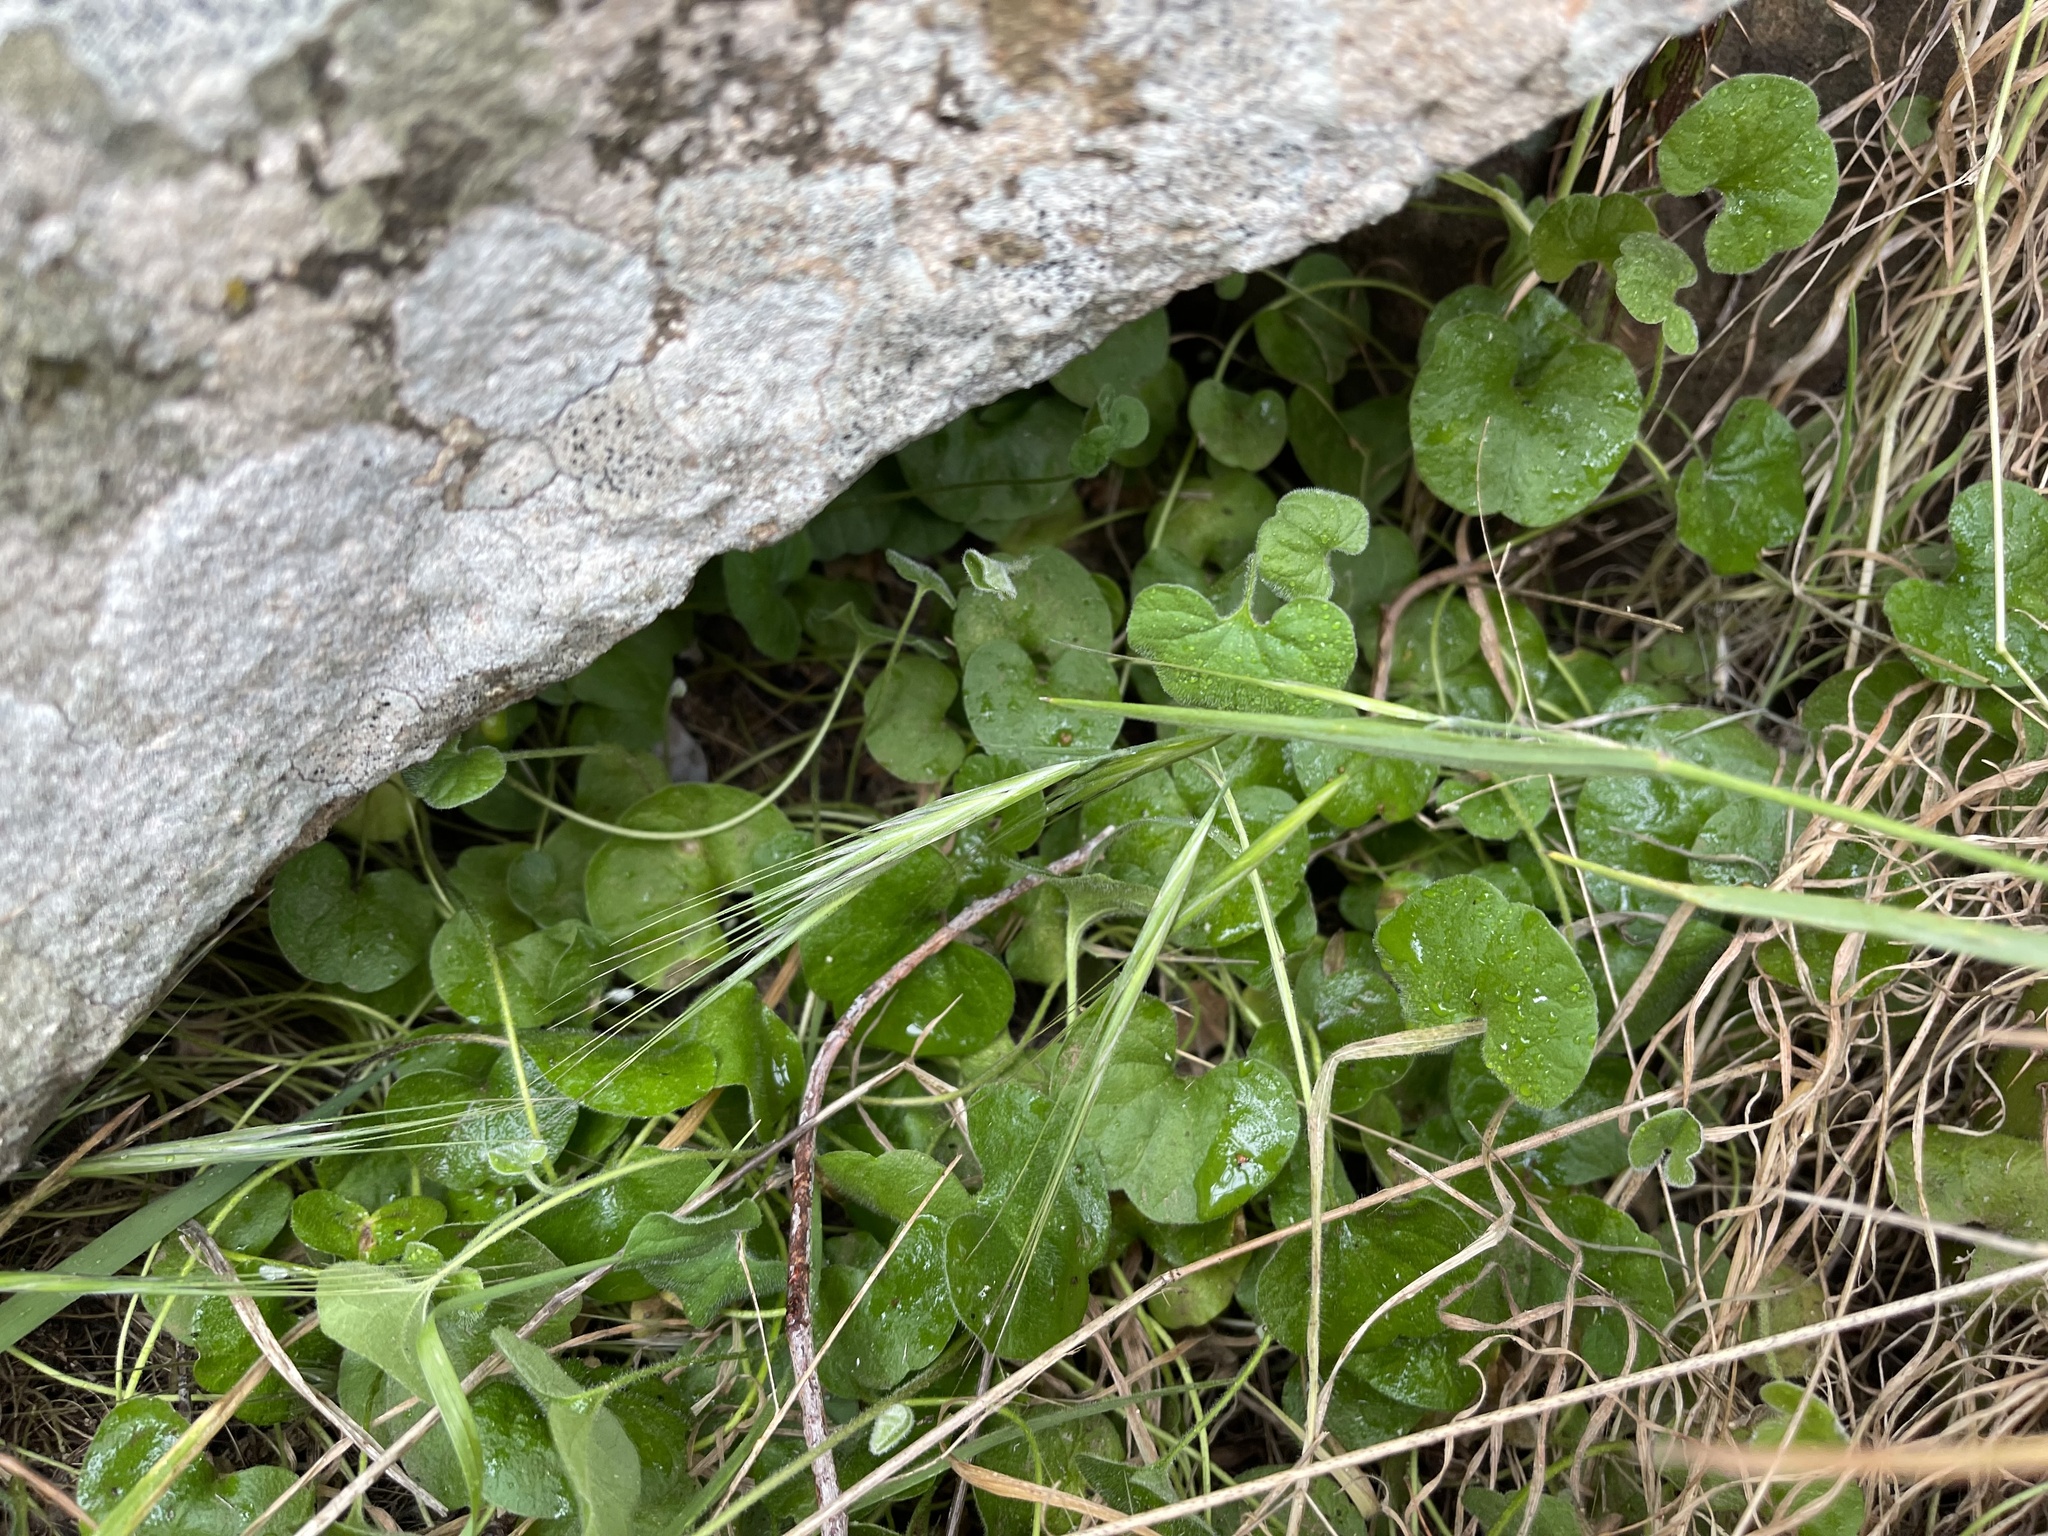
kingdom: Plantae
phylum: Tracheophyta
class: Magnoliopsida
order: Solanales
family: Convolvulaceae
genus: Dichondra
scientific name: Dichondra repens
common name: Kidneyweed
